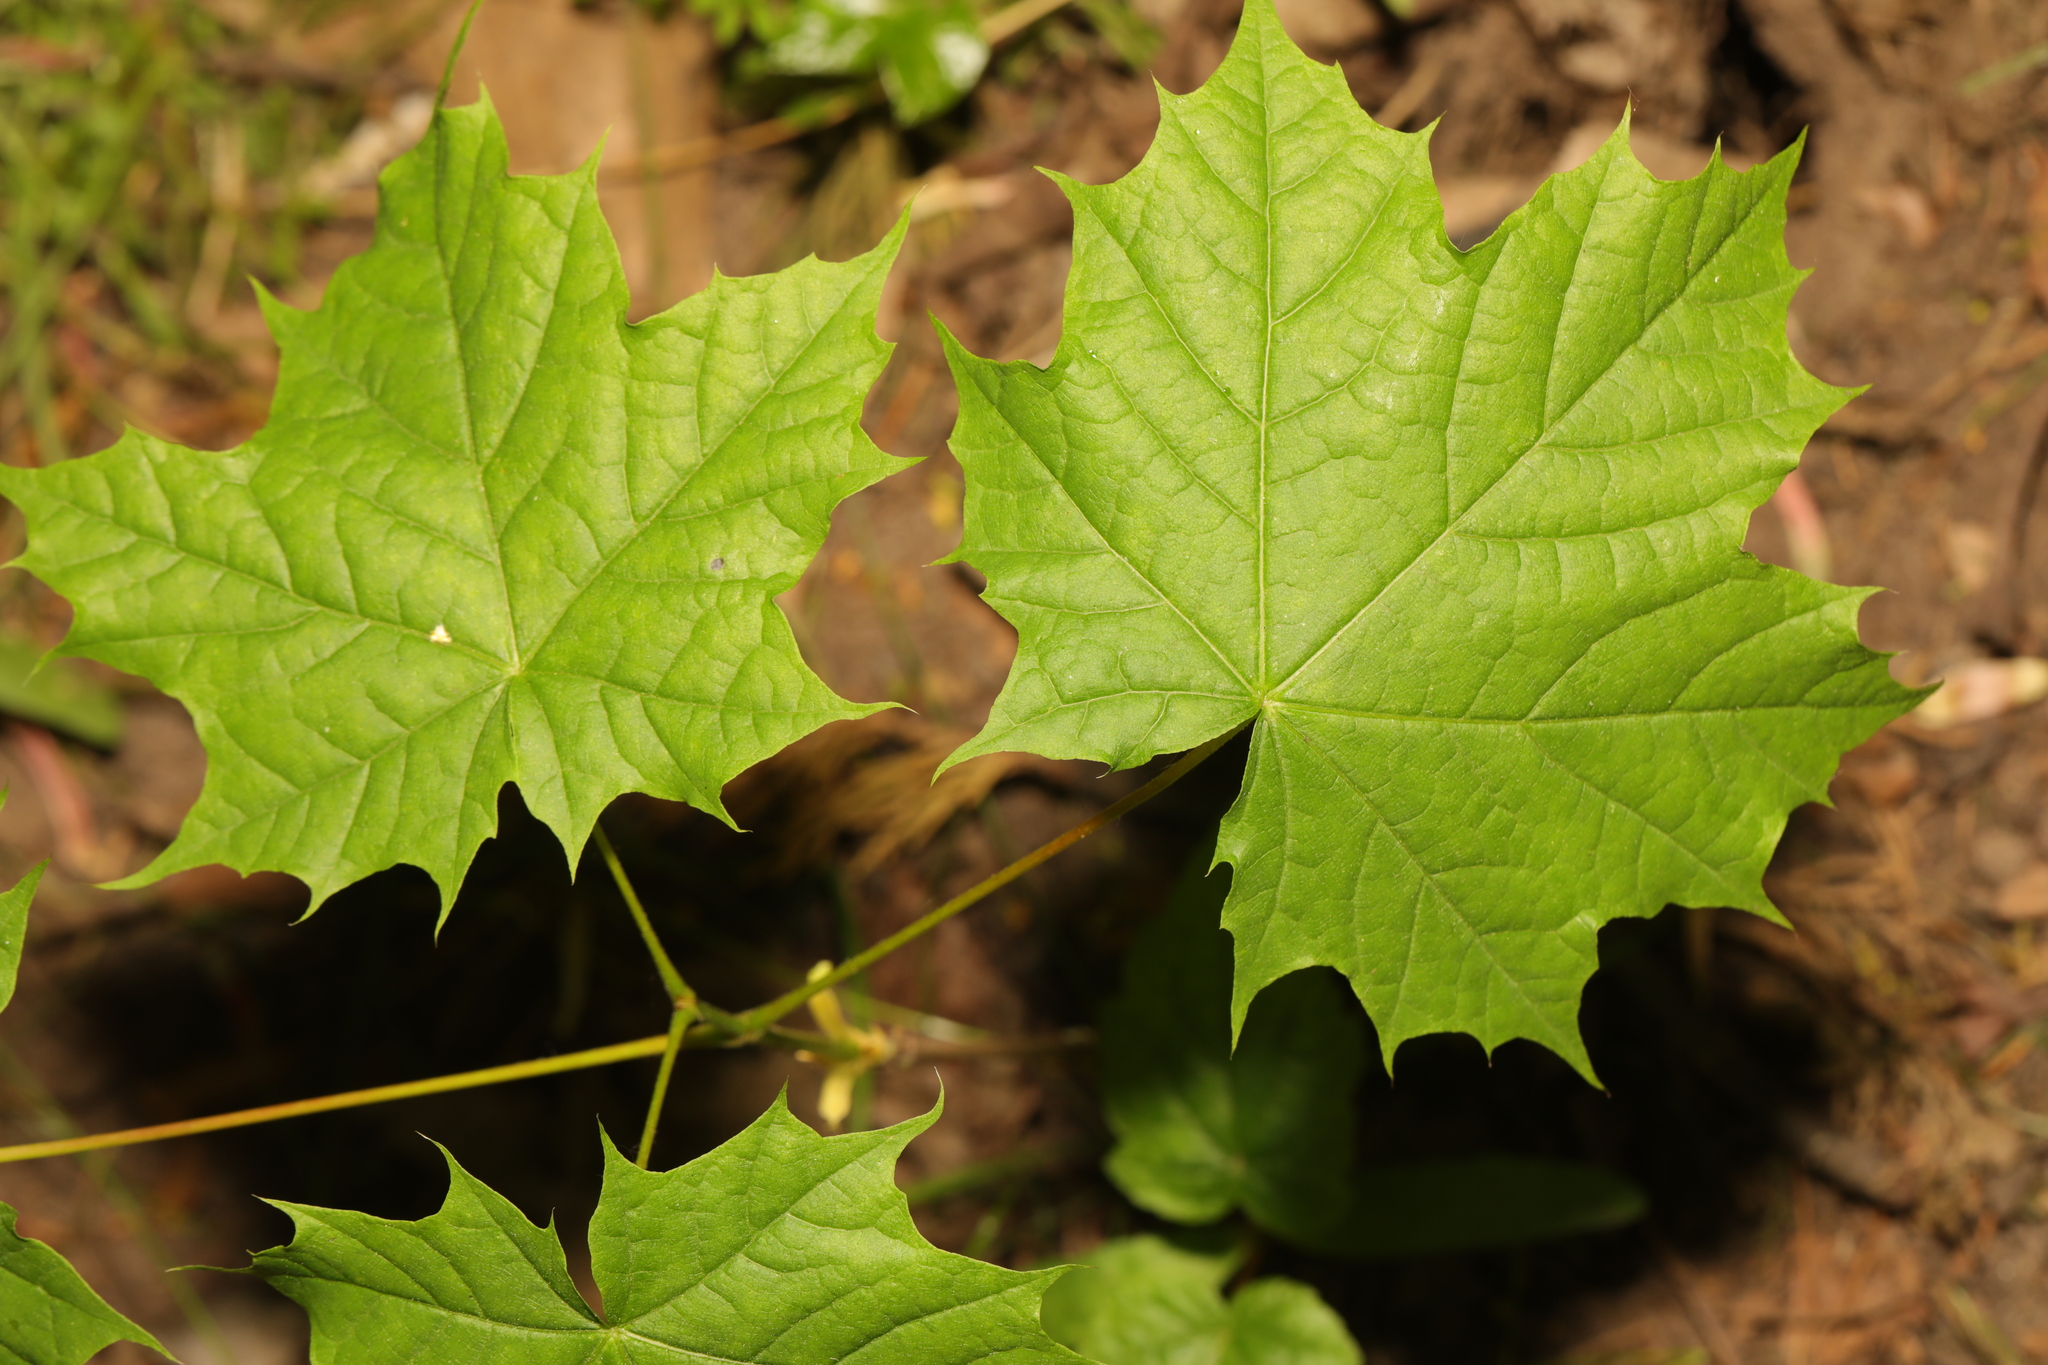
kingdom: Plantae
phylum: Tracheophyta
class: Magnoliopsida
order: Sapindales
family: Sapindaceae
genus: Acer
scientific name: Acer platanoides
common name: Norway maple
